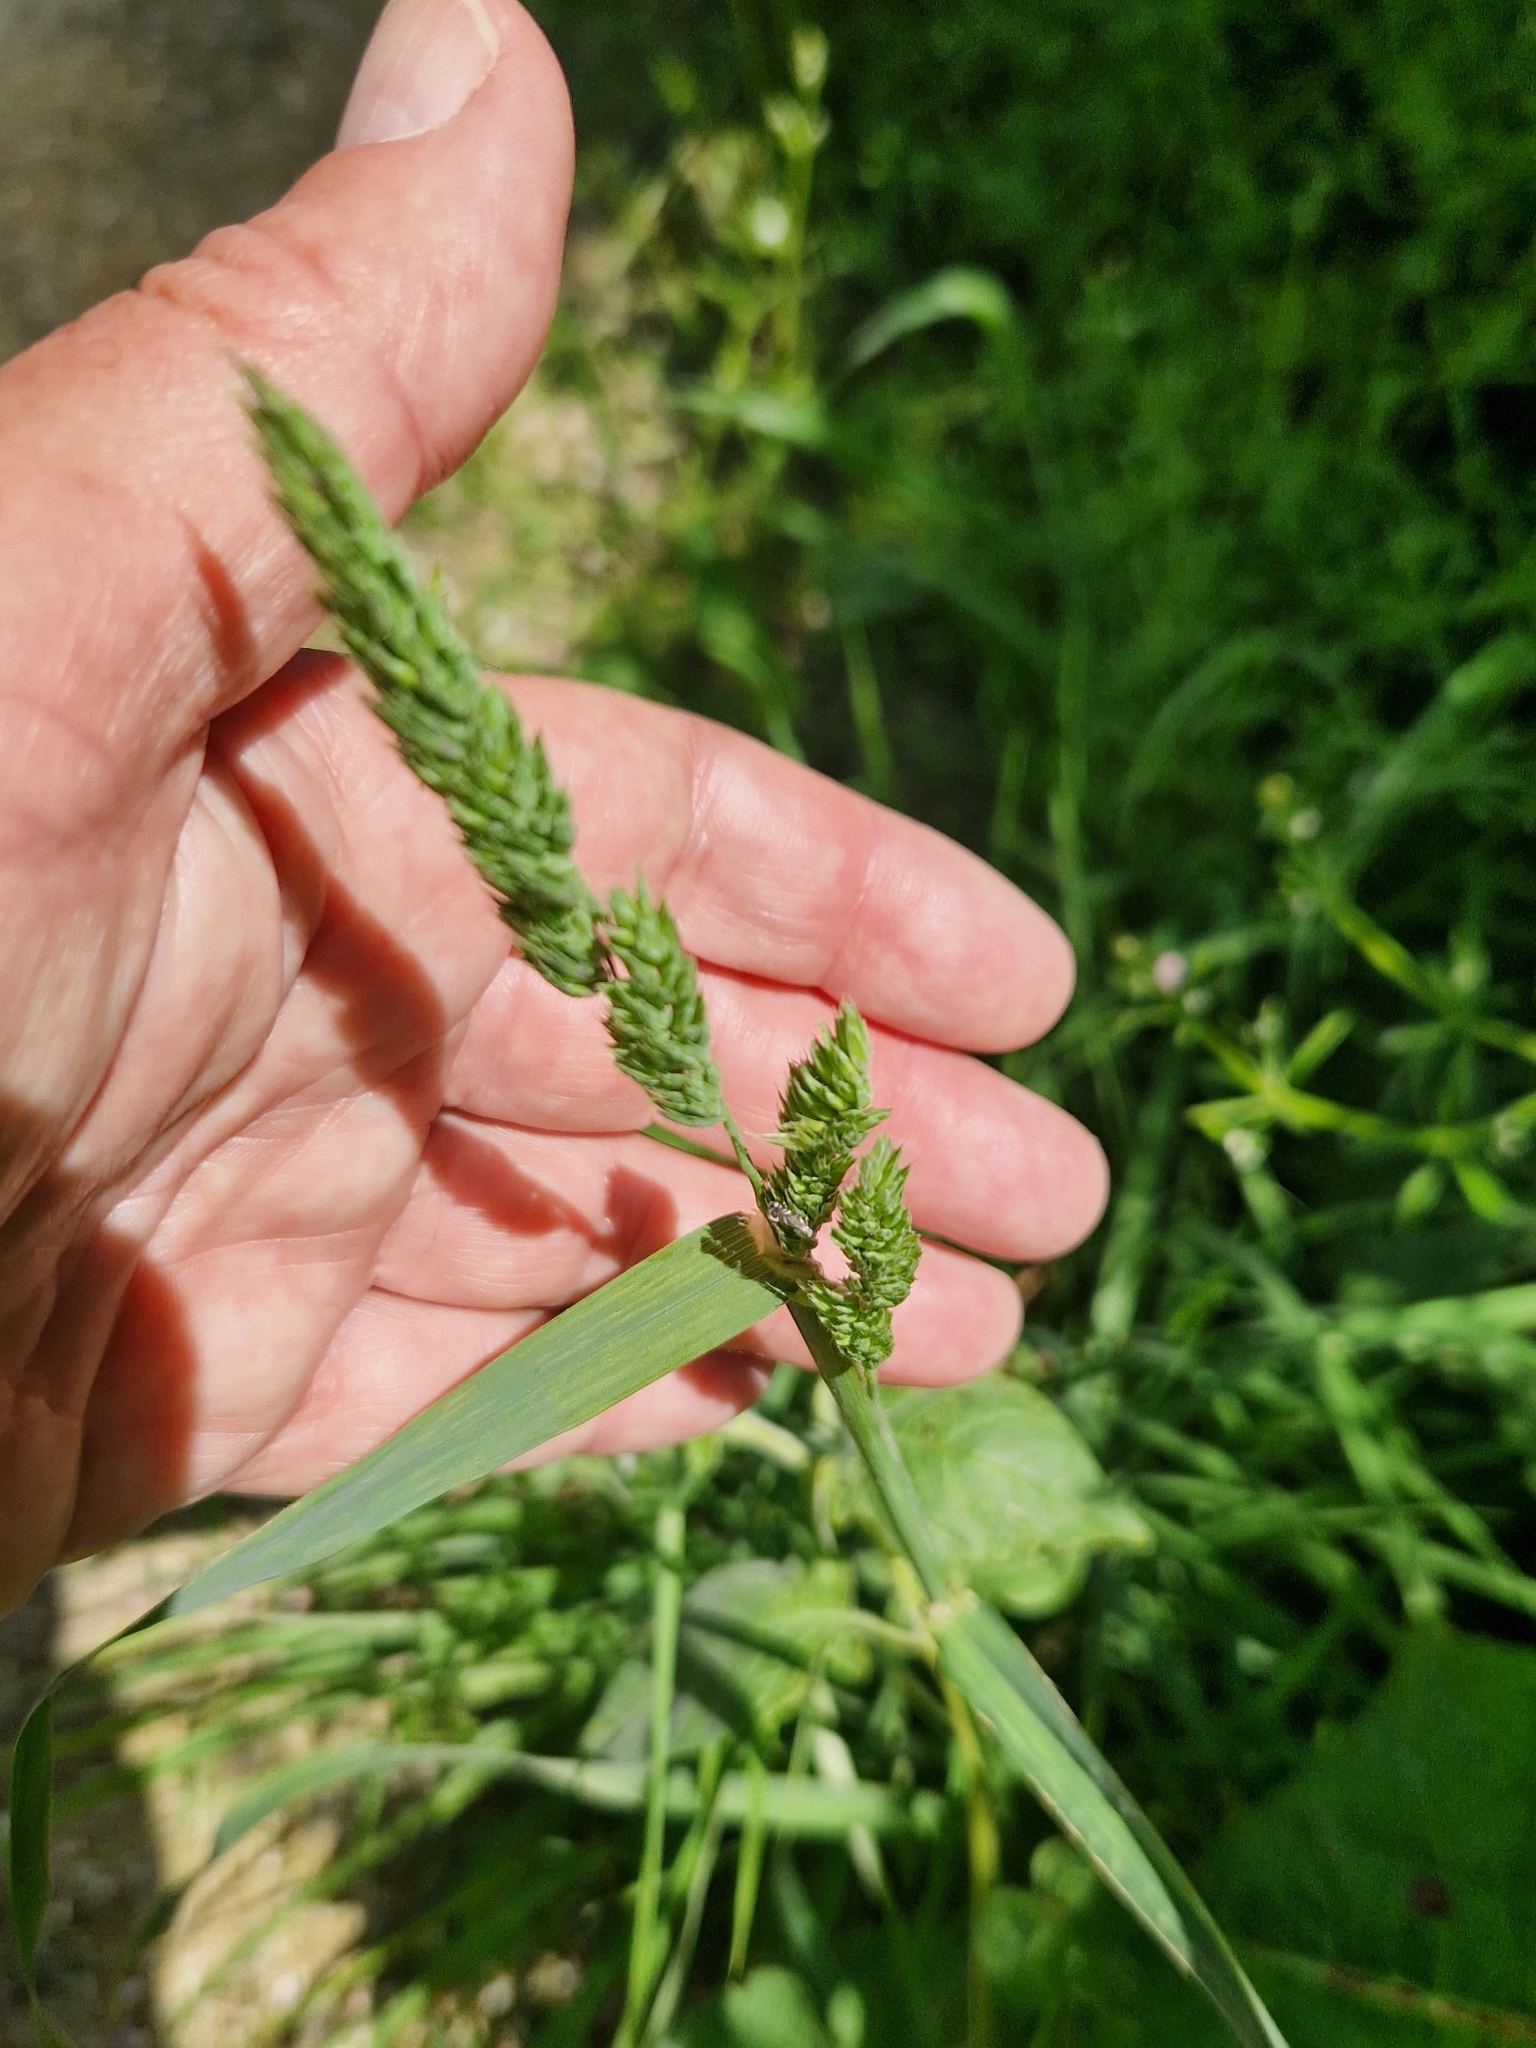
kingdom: Plantae
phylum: Tracheophyta
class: Liliopsida
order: Poales
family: Poaceae
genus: Dactylis
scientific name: Dactylis glomerata
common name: Orchardgrass
